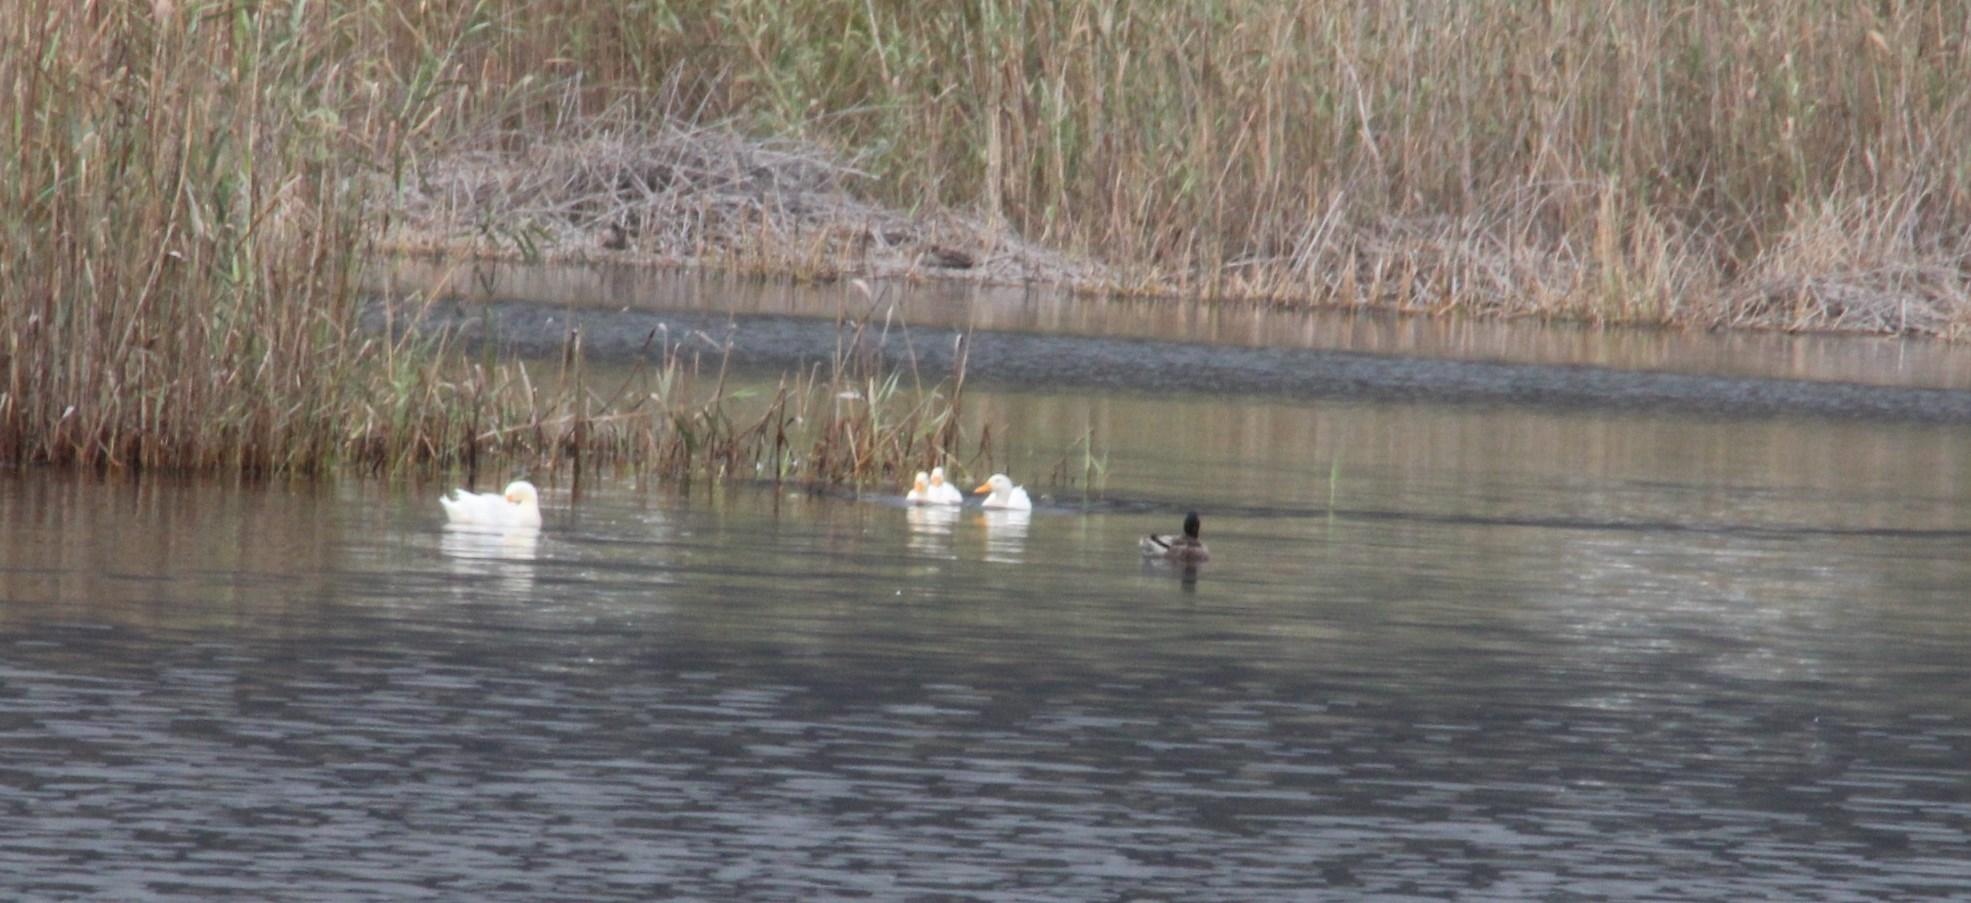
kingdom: Animalia
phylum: Chordata
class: Aves
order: Anseriformes
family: Anatidae
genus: Anas
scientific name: Anas platyrhynchos
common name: Mallard
